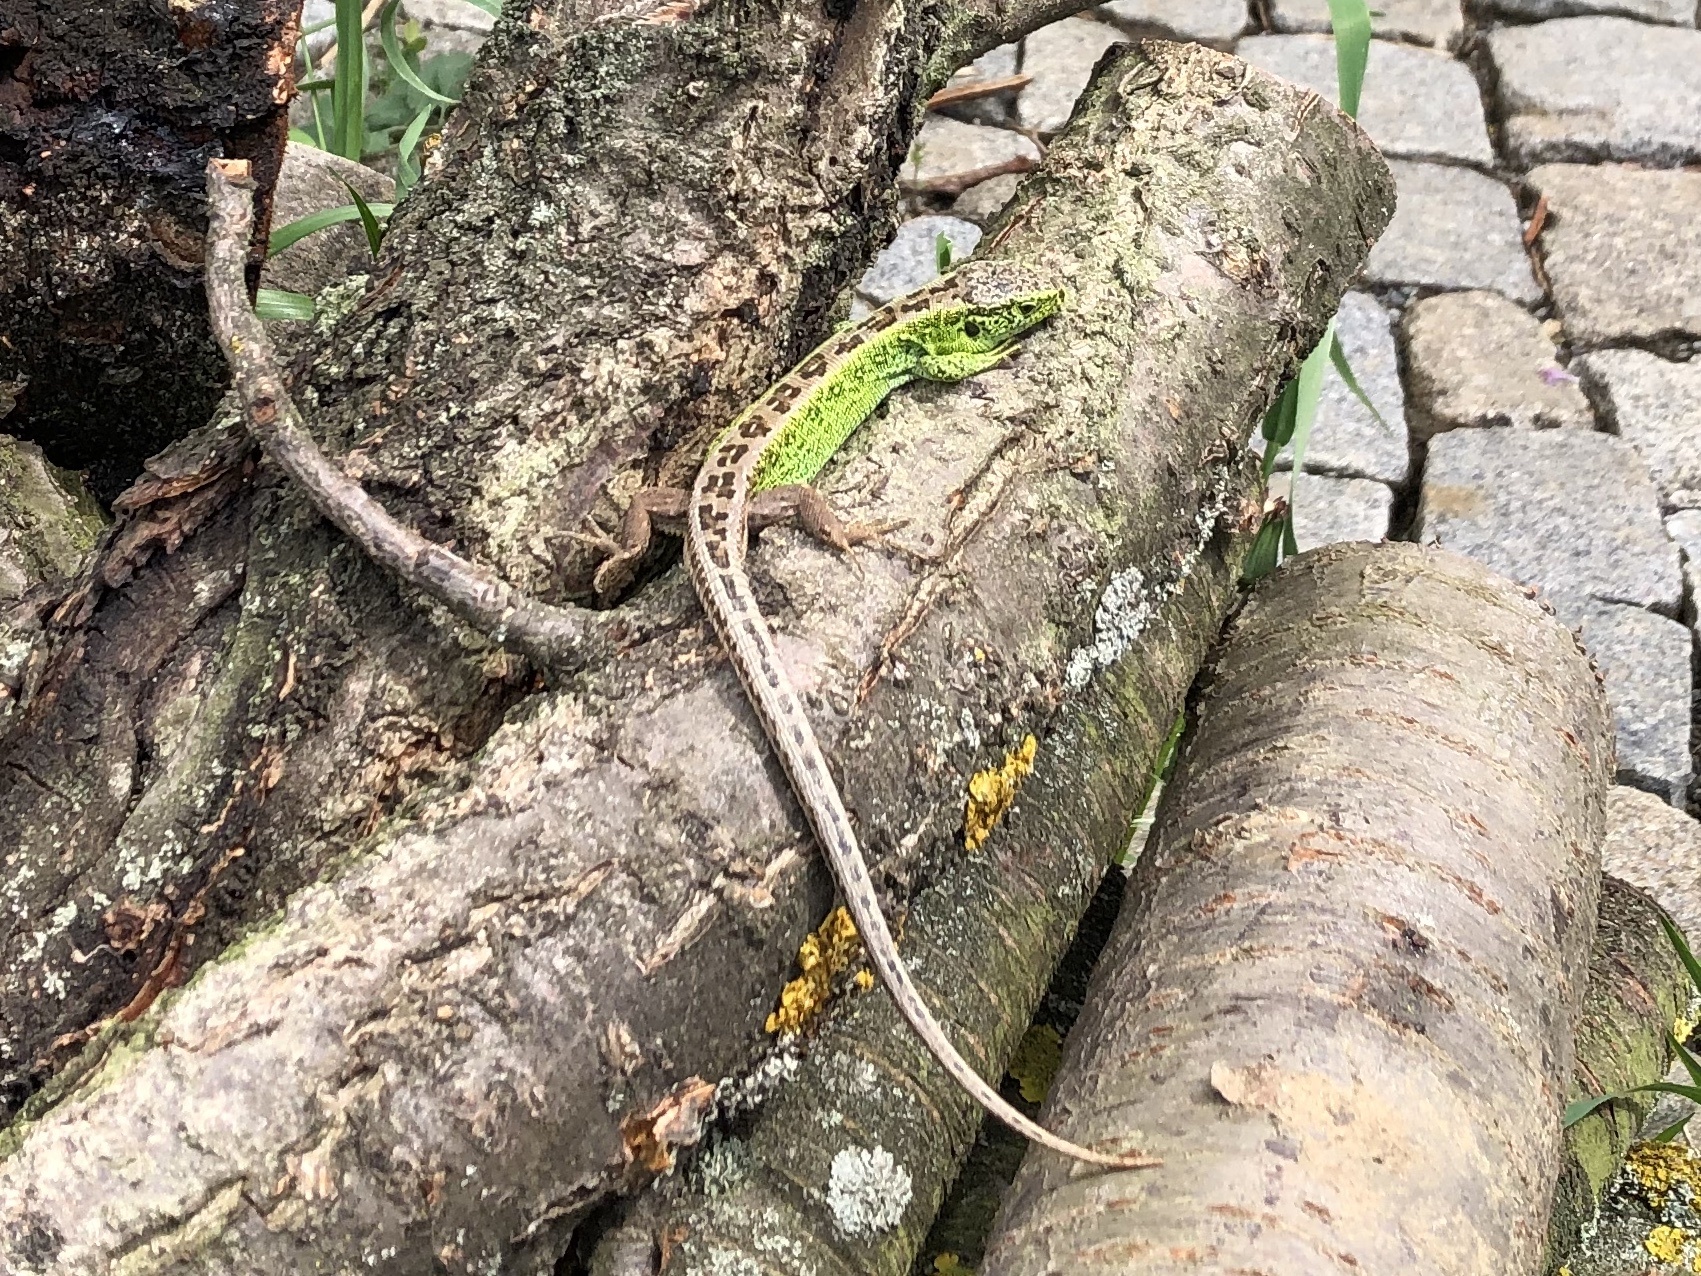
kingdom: Animalia
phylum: Chordata
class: Squamata
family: Lacertidae
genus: Lacerta
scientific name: Lacerta agilis
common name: Sand lizard
